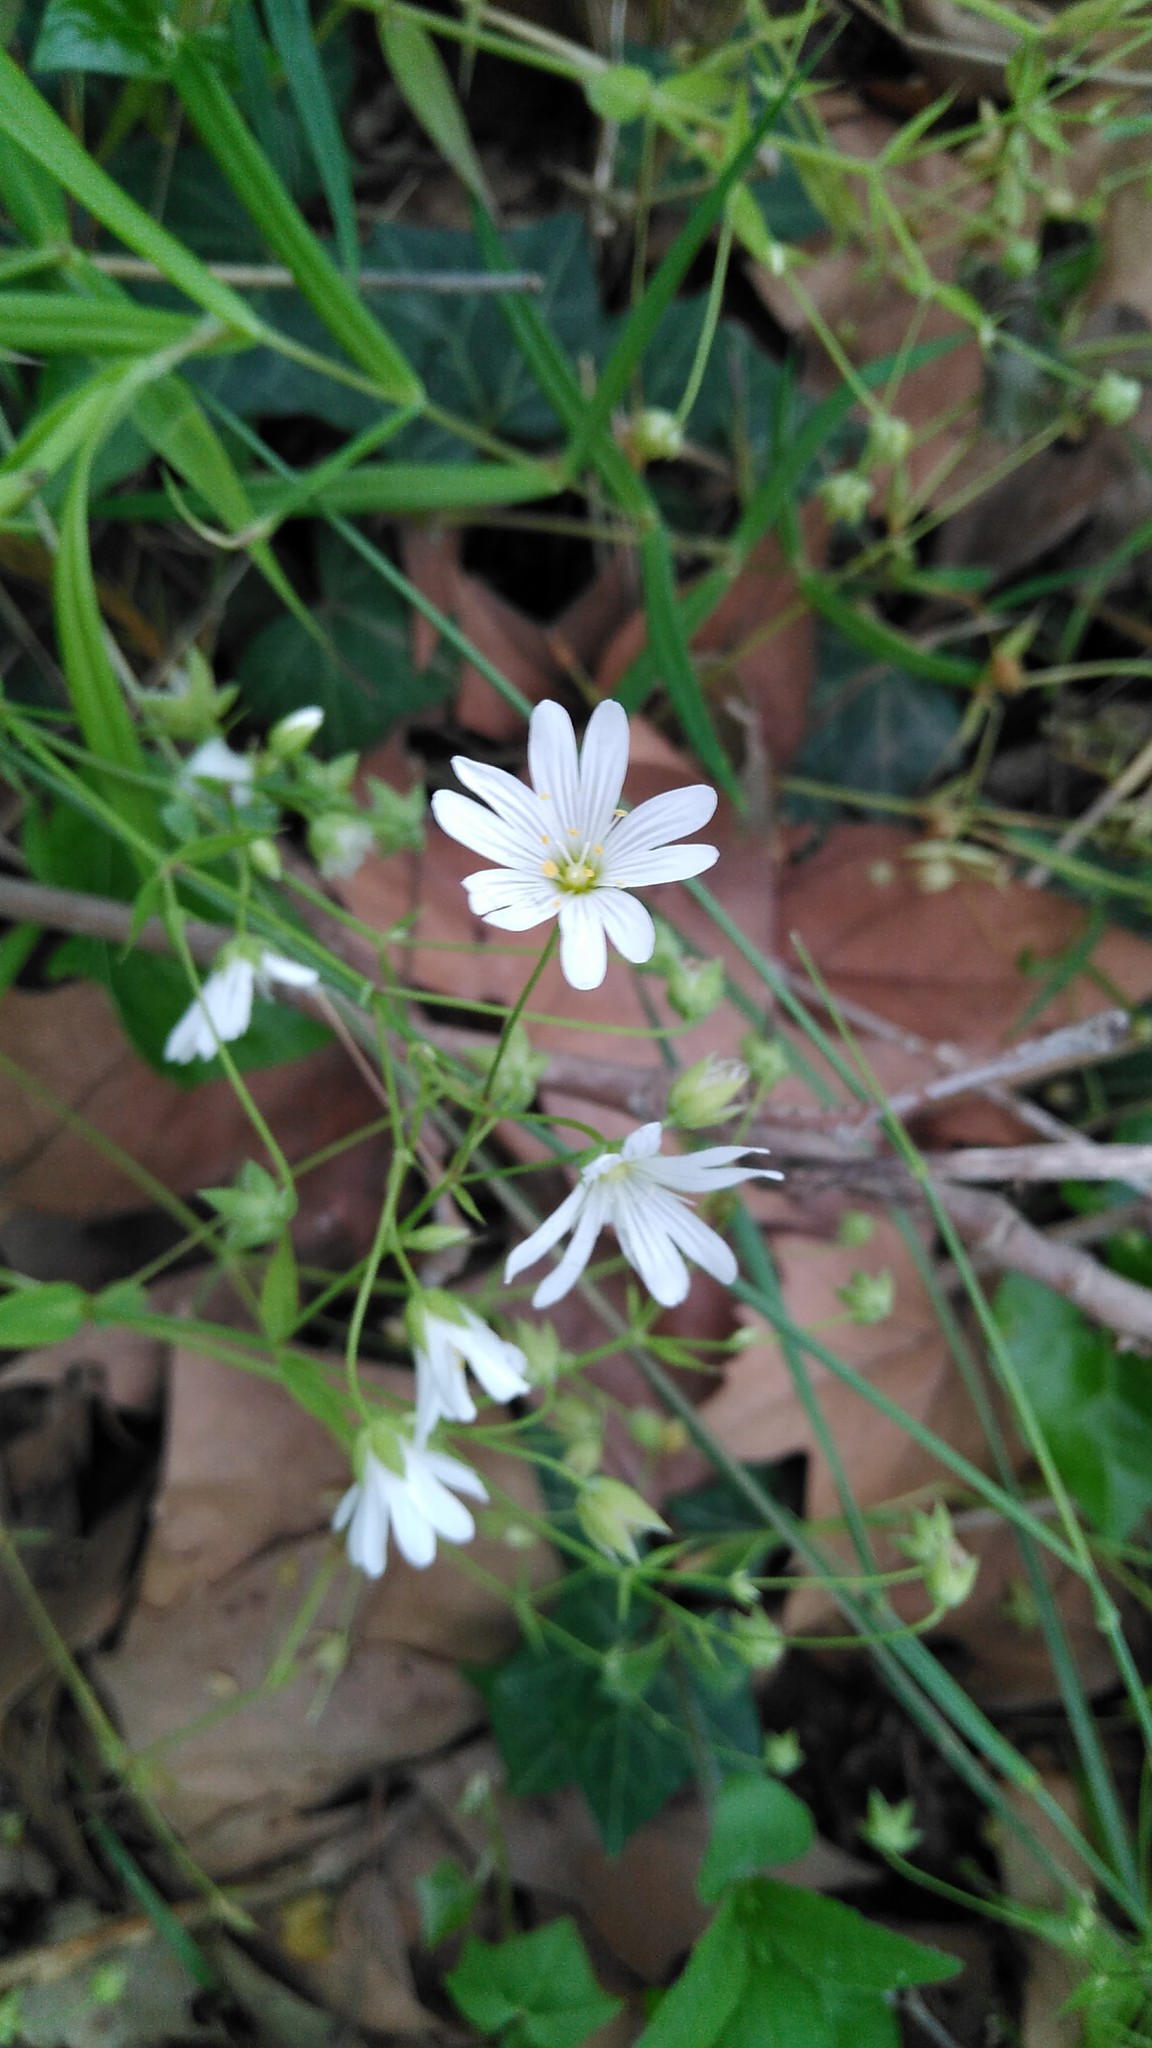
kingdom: Plantae
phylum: Tracheophyta
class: Magnoliopsida
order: Caryophyllales
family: Caryophyllaceae
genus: Rabelera
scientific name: Rabelera holostea
